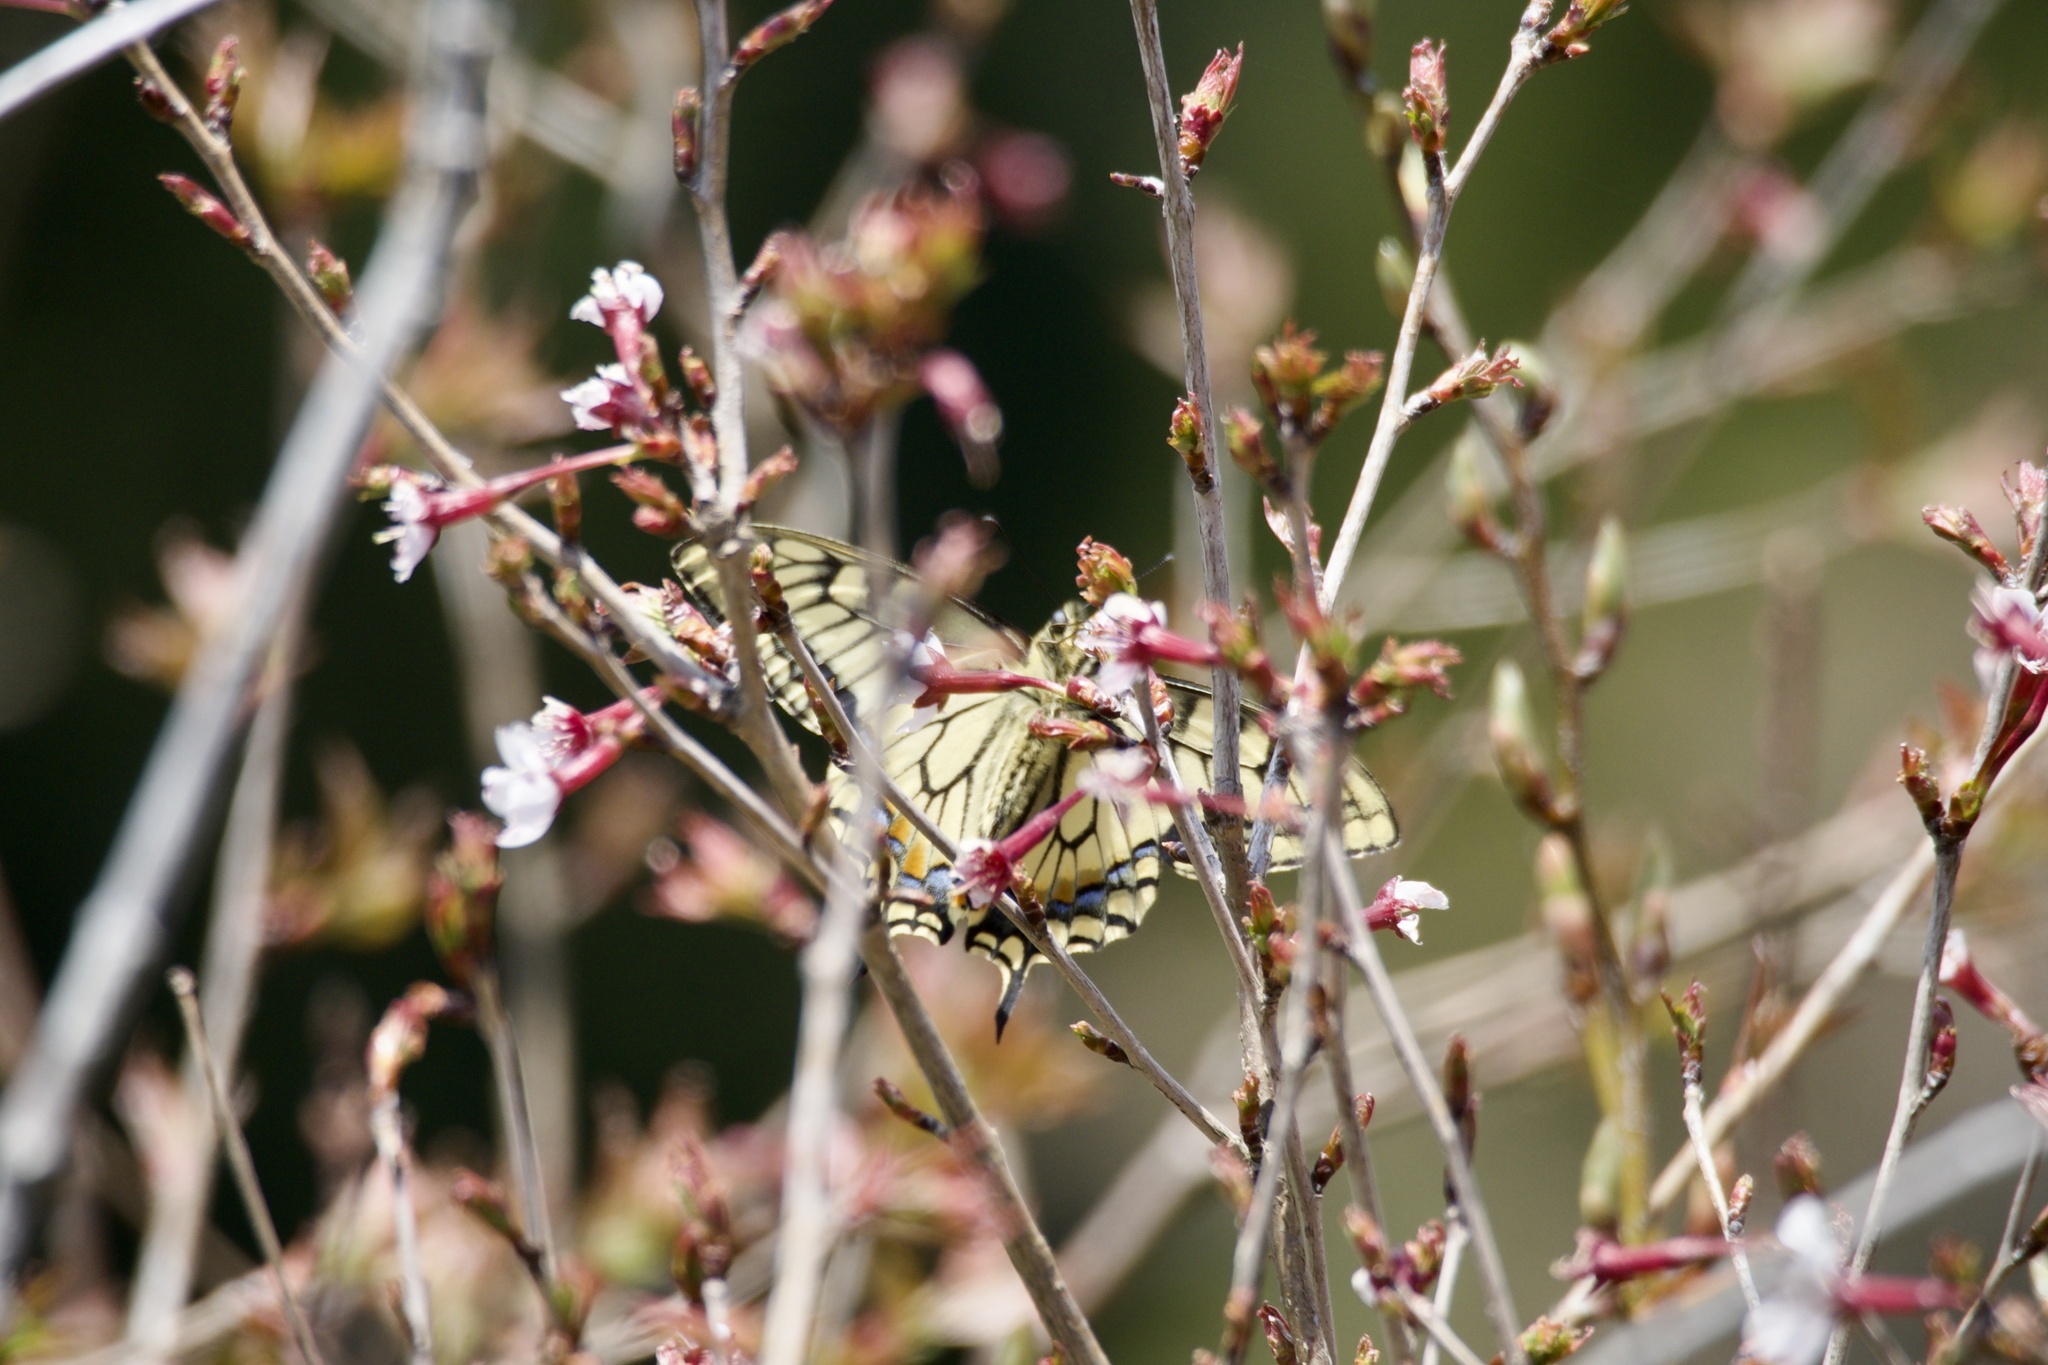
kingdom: Animalia
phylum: Arthropoda
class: Insecta
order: Lepidoptera
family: Papilionidae
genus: Papilio
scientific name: Papilio machaon
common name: Swallowtail
